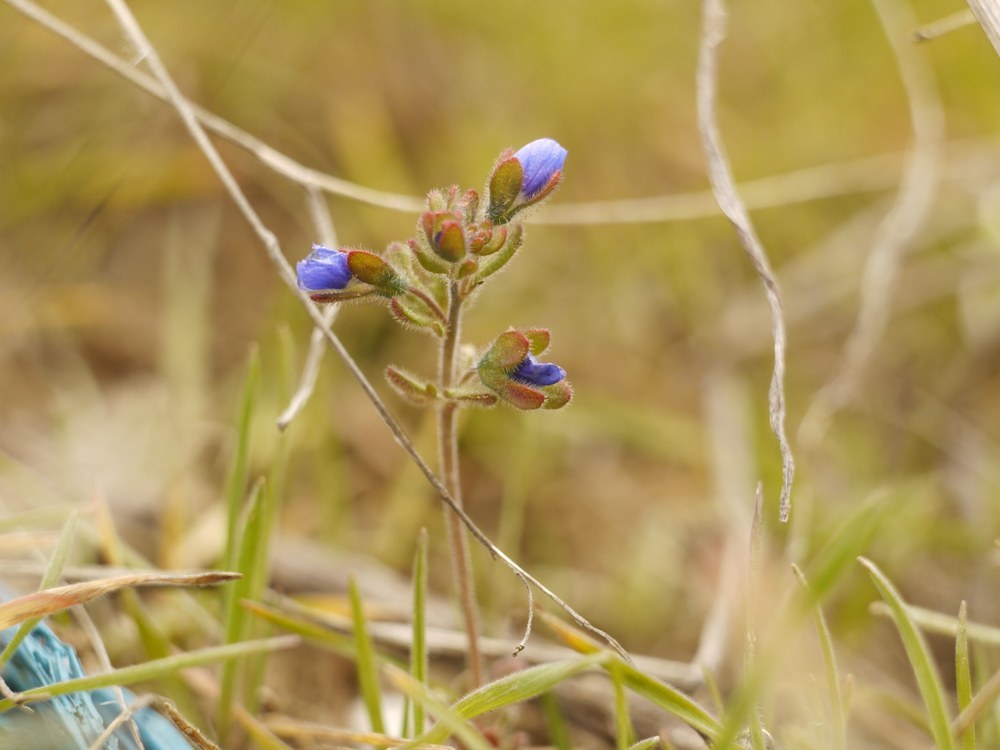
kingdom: Plantae
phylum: Tracheophyta
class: Magnoliopsida
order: Lamiales
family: Plantaginaceae
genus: Veronica
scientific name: Veronica triphyllos
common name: Fingered speedwell
